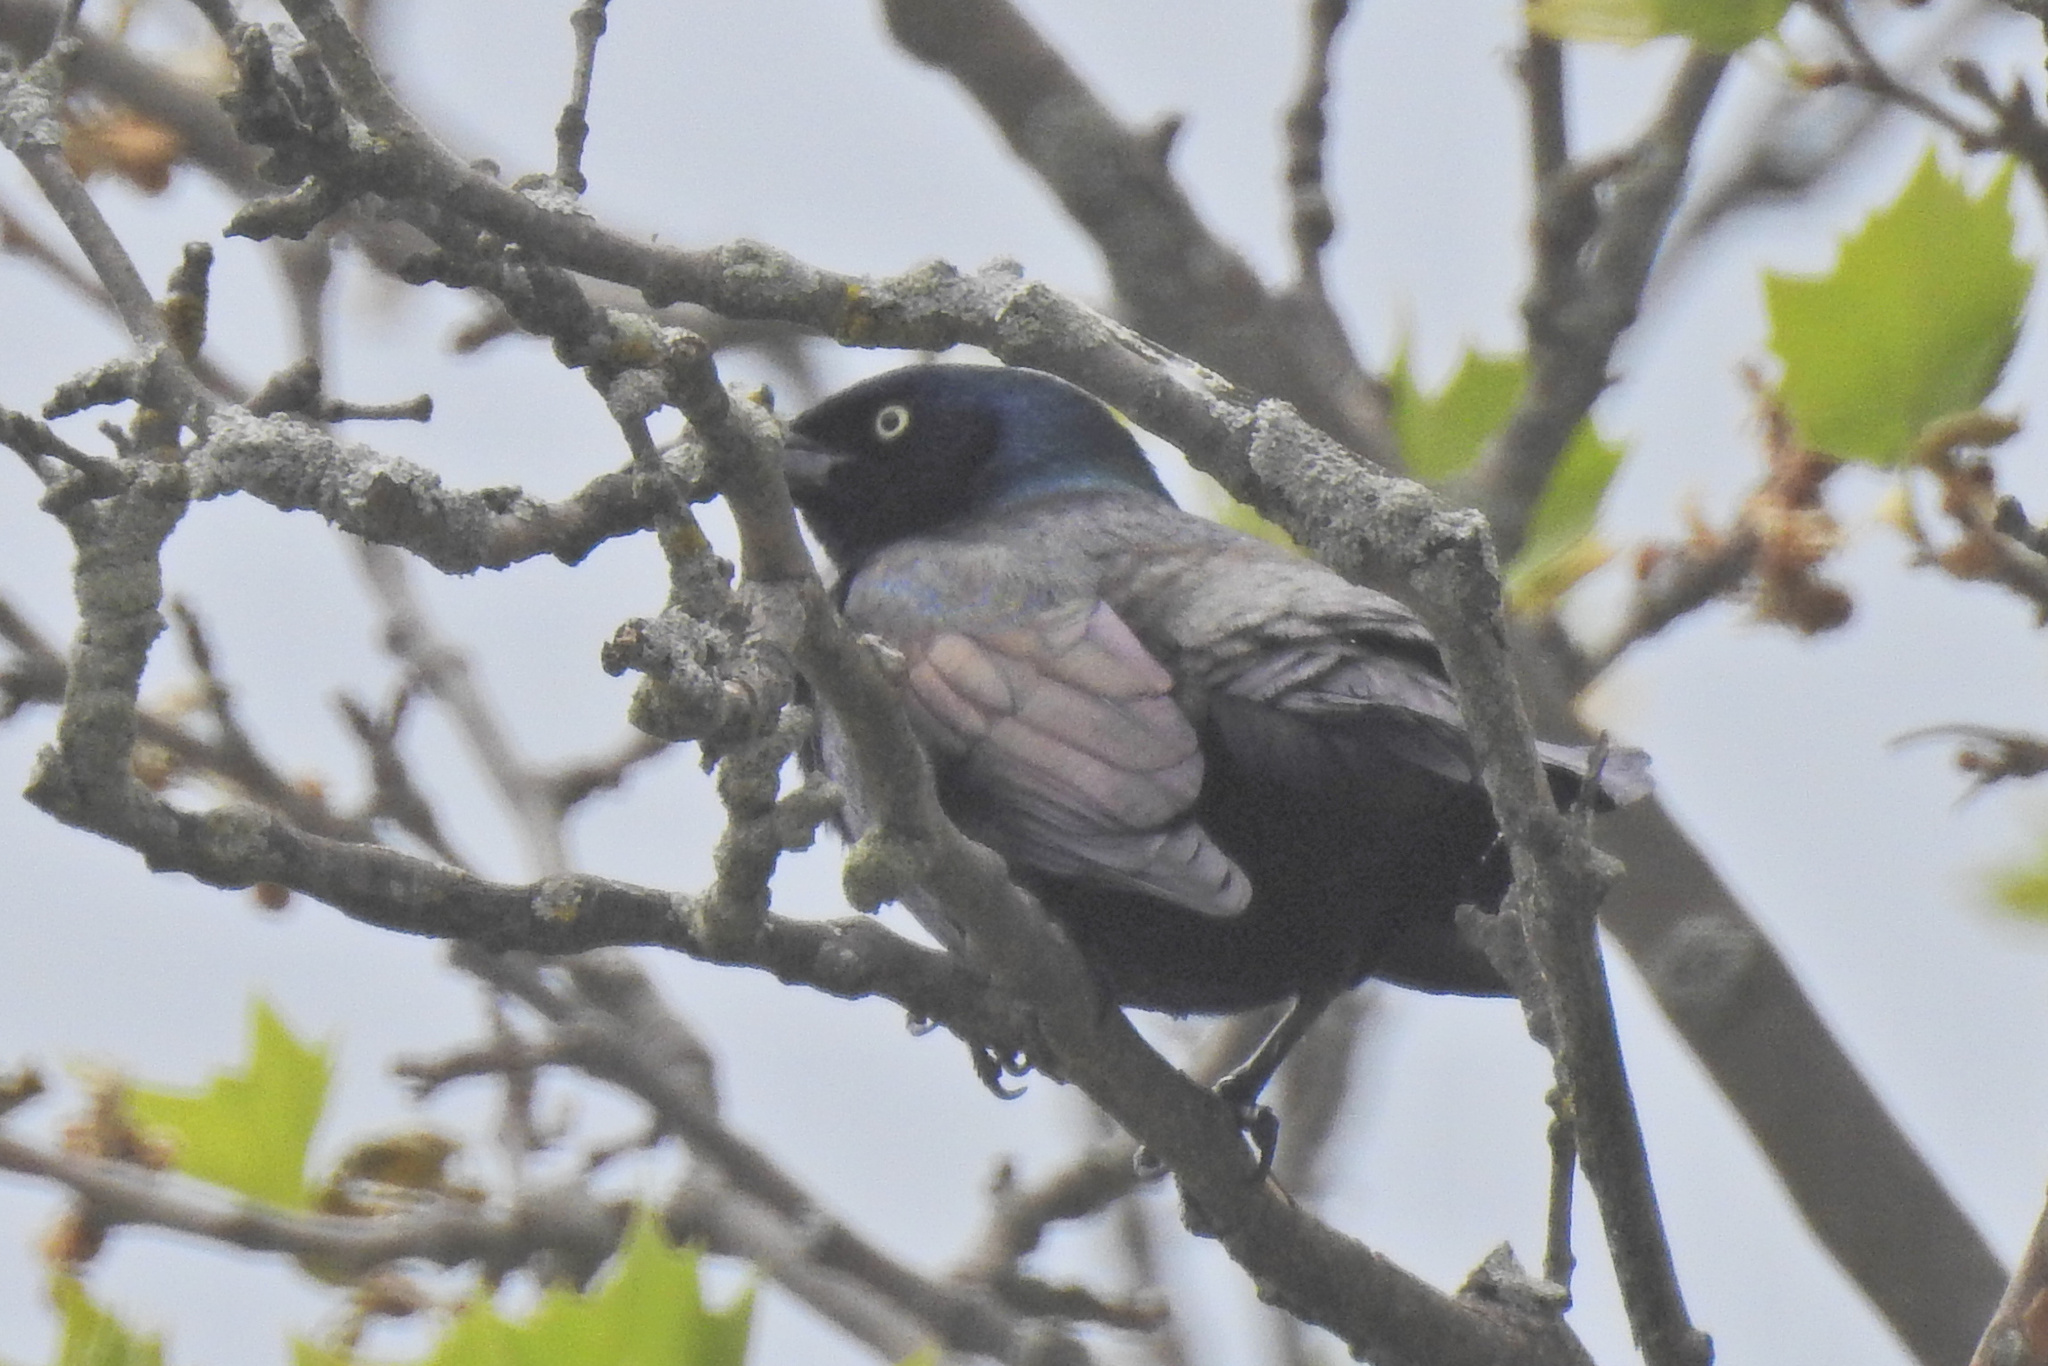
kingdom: Animalia
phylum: Chordata
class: Aves
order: Passeriformes
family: Icteridae
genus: Quiscalus
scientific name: Quiscalus quiscula
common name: Common grackle
